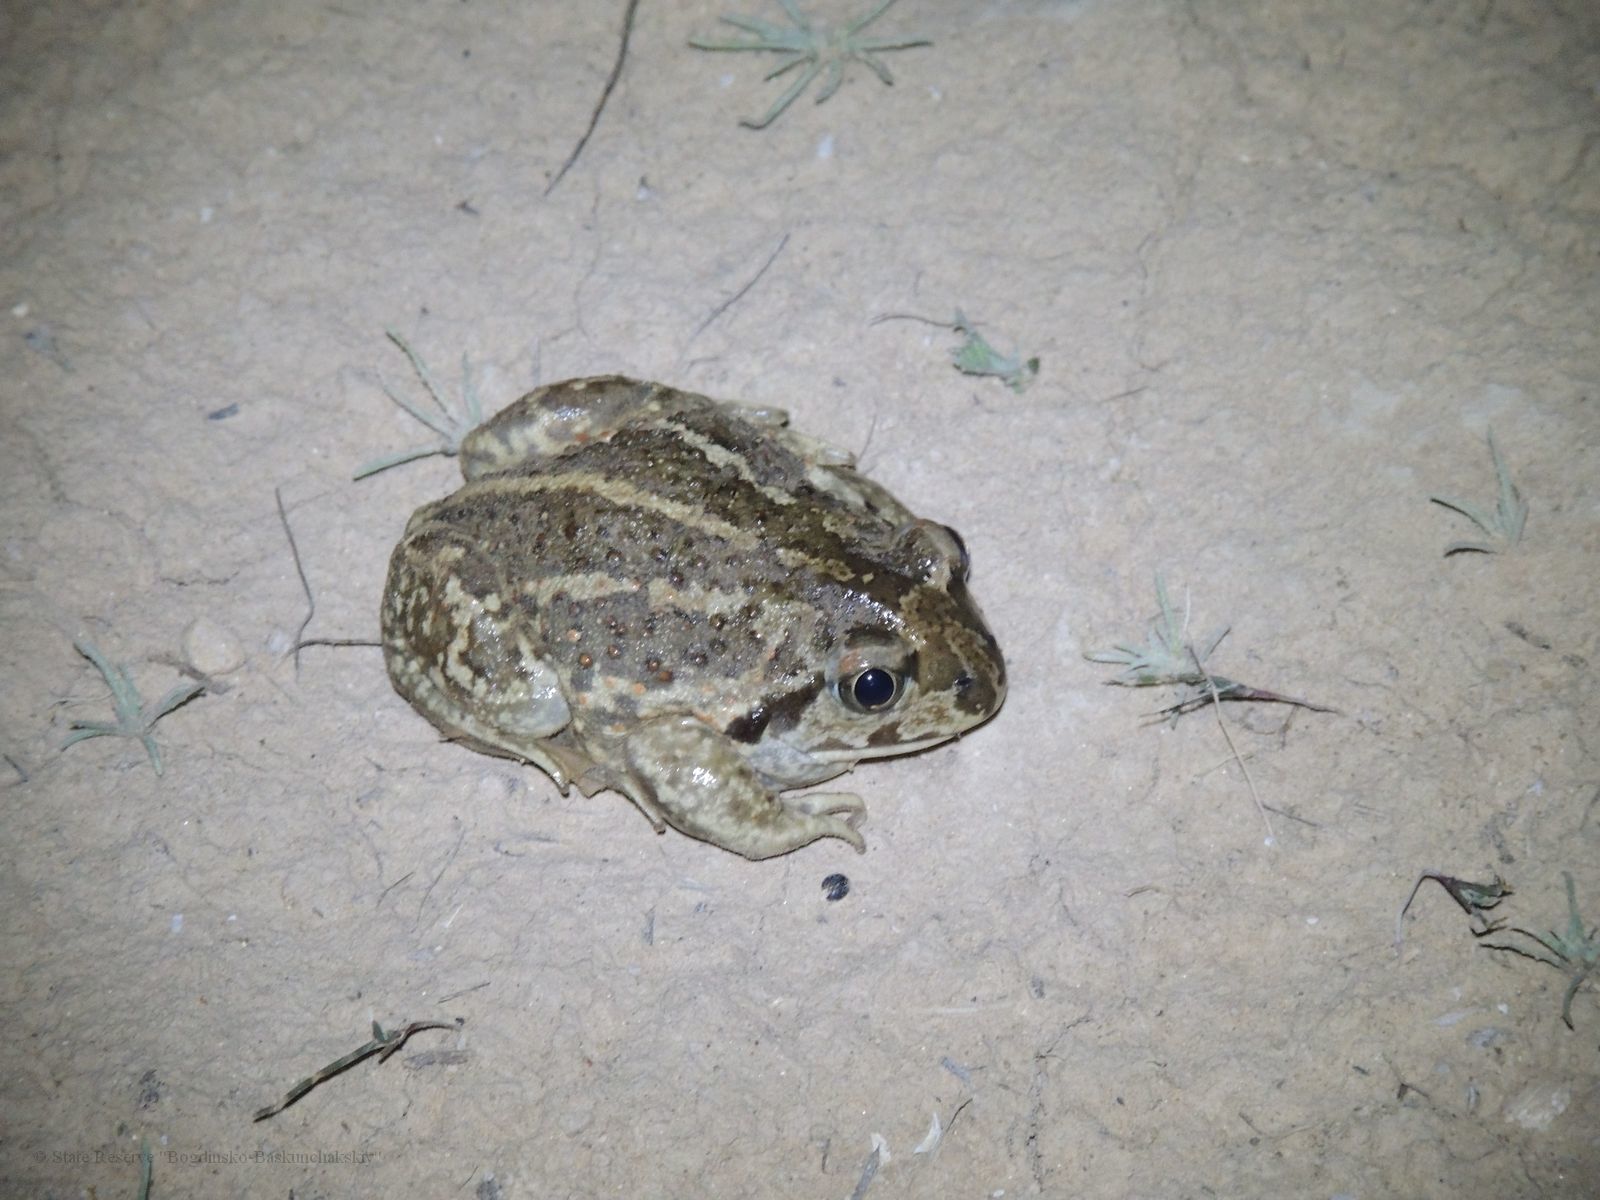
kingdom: Animalia
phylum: Chordata
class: Amphibia
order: Anura
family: Pelobatidae
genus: Pelobates
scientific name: Pelobates vespertinus
